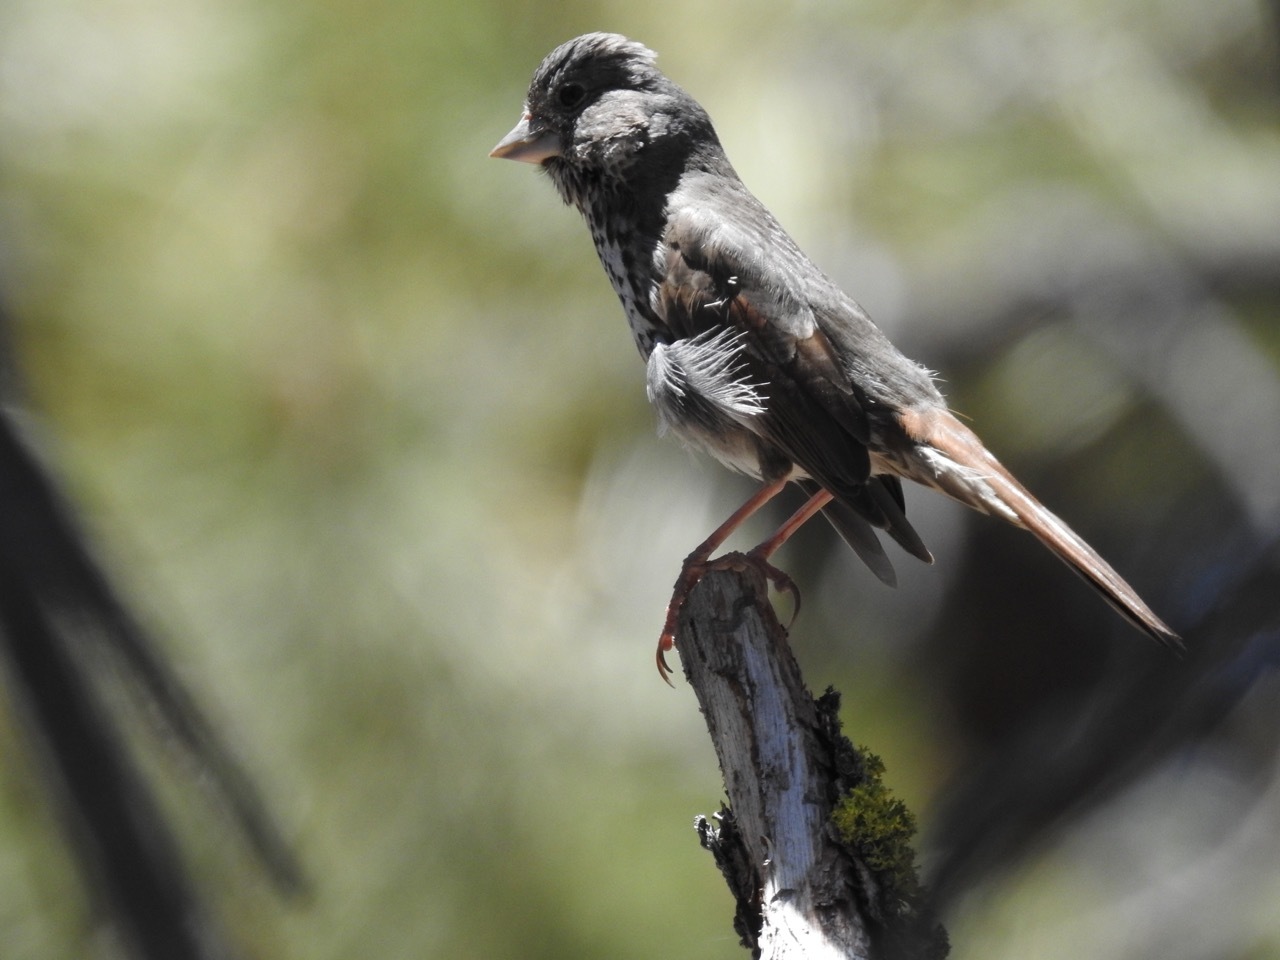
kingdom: Animalia
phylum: Chordata
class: Aves
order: Passeriformes
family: Passerellidae
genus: Passerella
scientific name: Passerella megarhyncha
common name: Thick-billed fox sparrow
